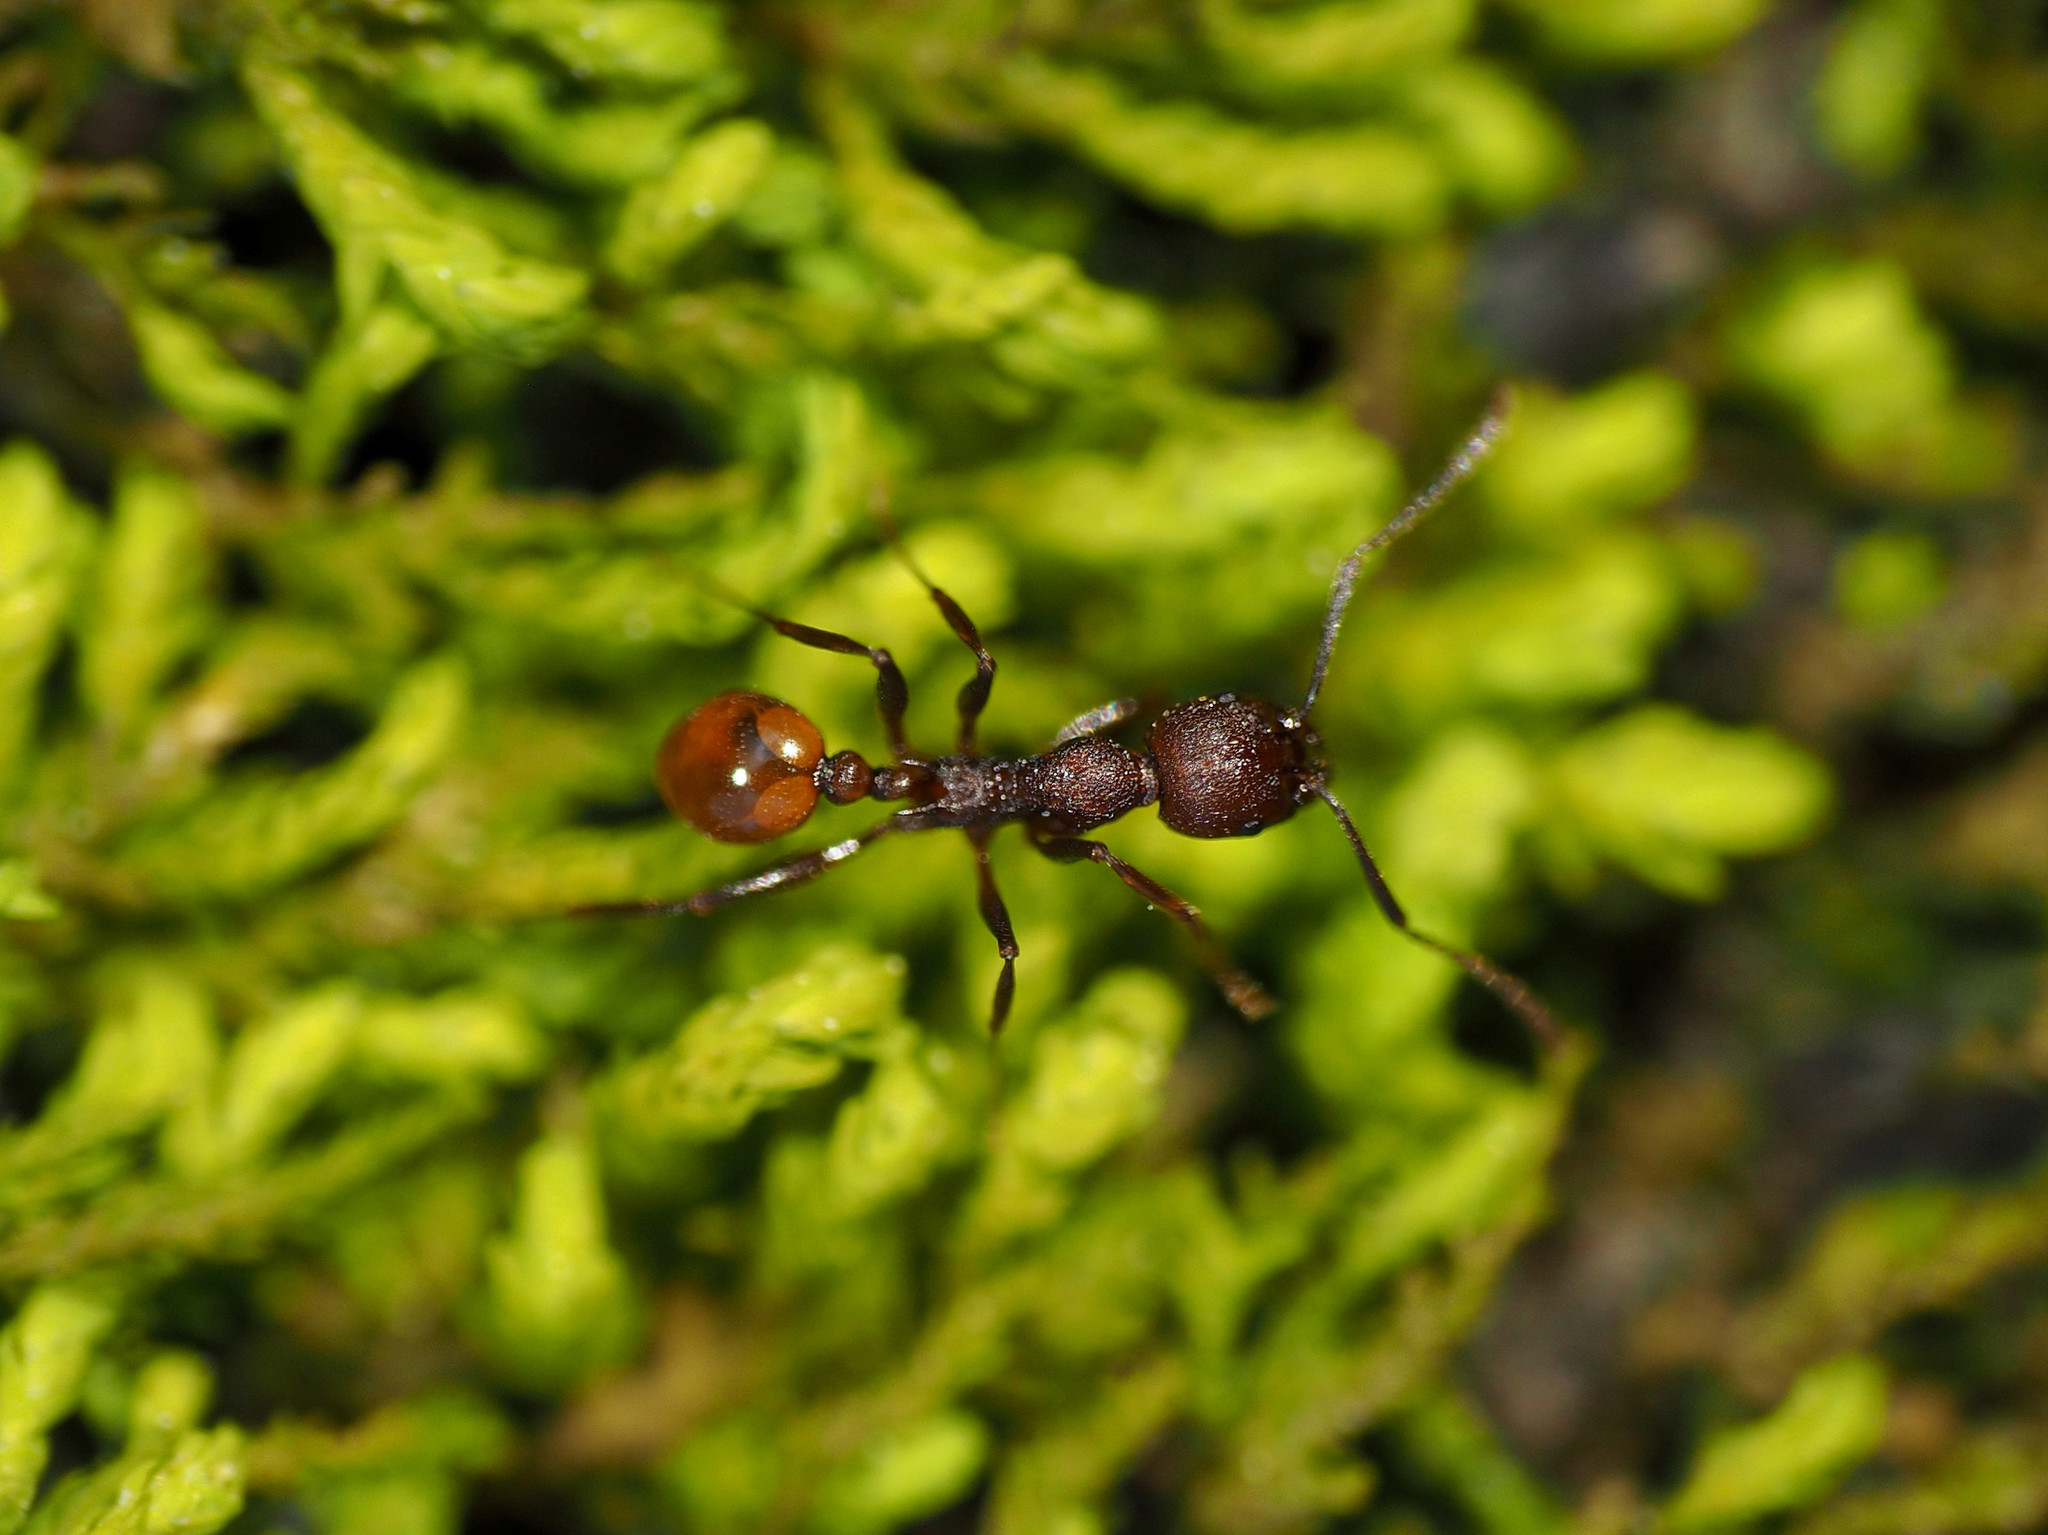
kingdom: Animalia
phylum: Arthropoda
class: Insecta
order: Hymenoptera
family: Formicidae
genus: Aphaenogaster
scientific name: Aphaenogaster tennesseensis
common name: Tennessee thread-waisted ant
